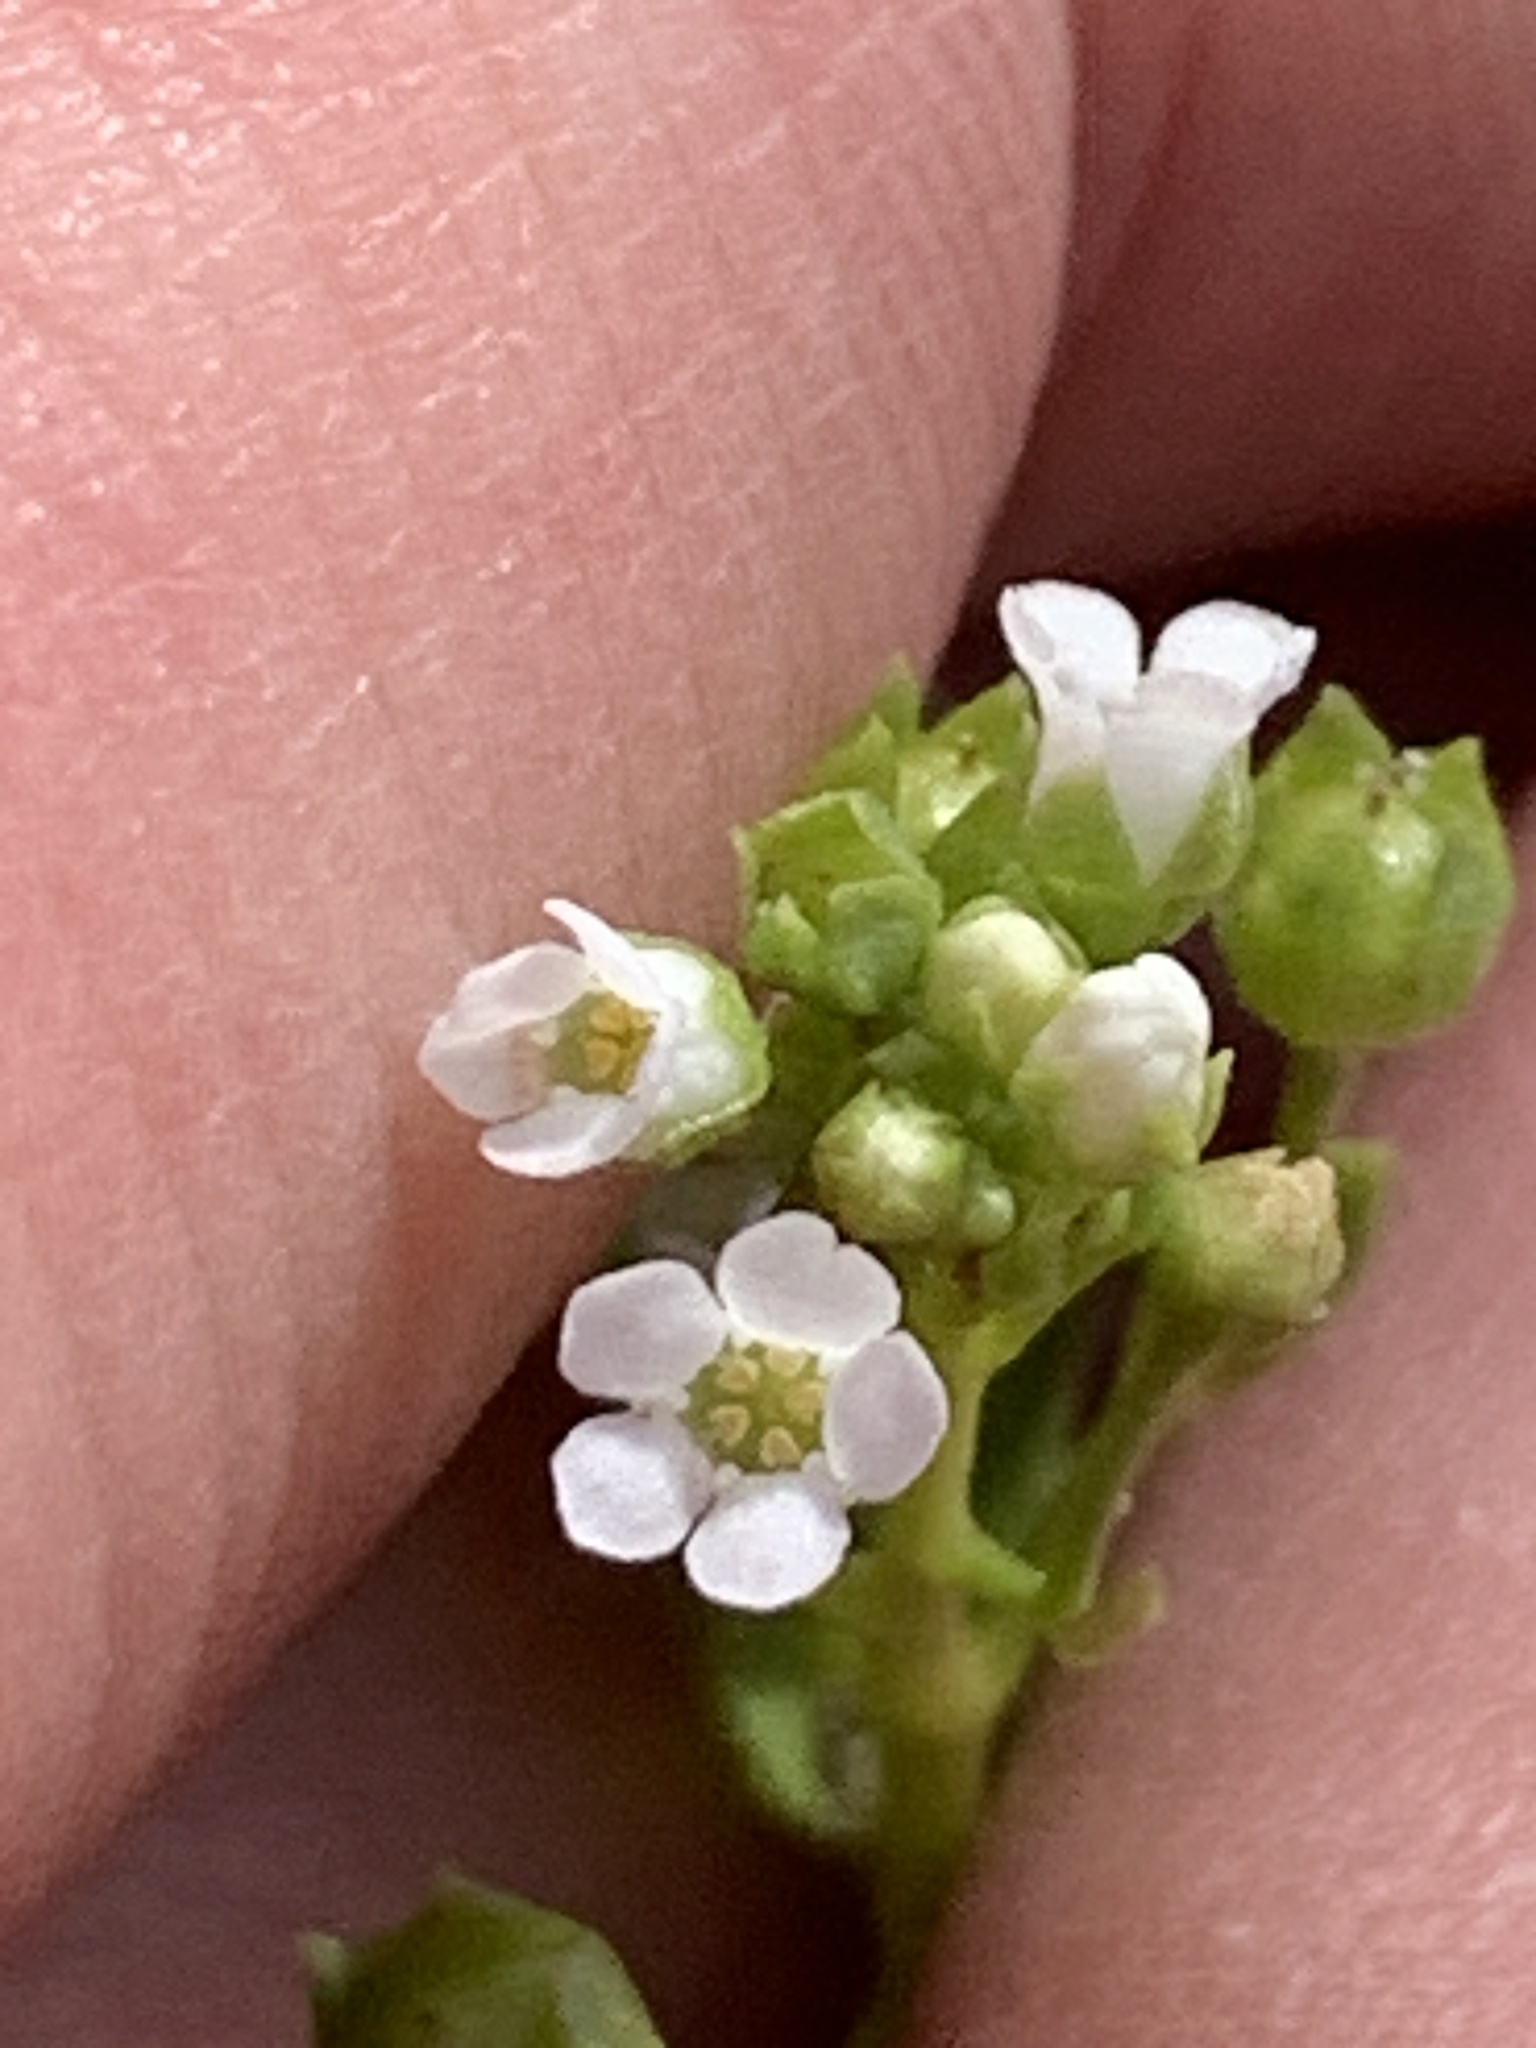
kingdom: Plantae
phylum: Tracheophyta
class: Magnoliopsida
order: Ericales
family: Primulaceae
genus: Samolus
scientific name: Samolus valerandi
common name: Brookweed
